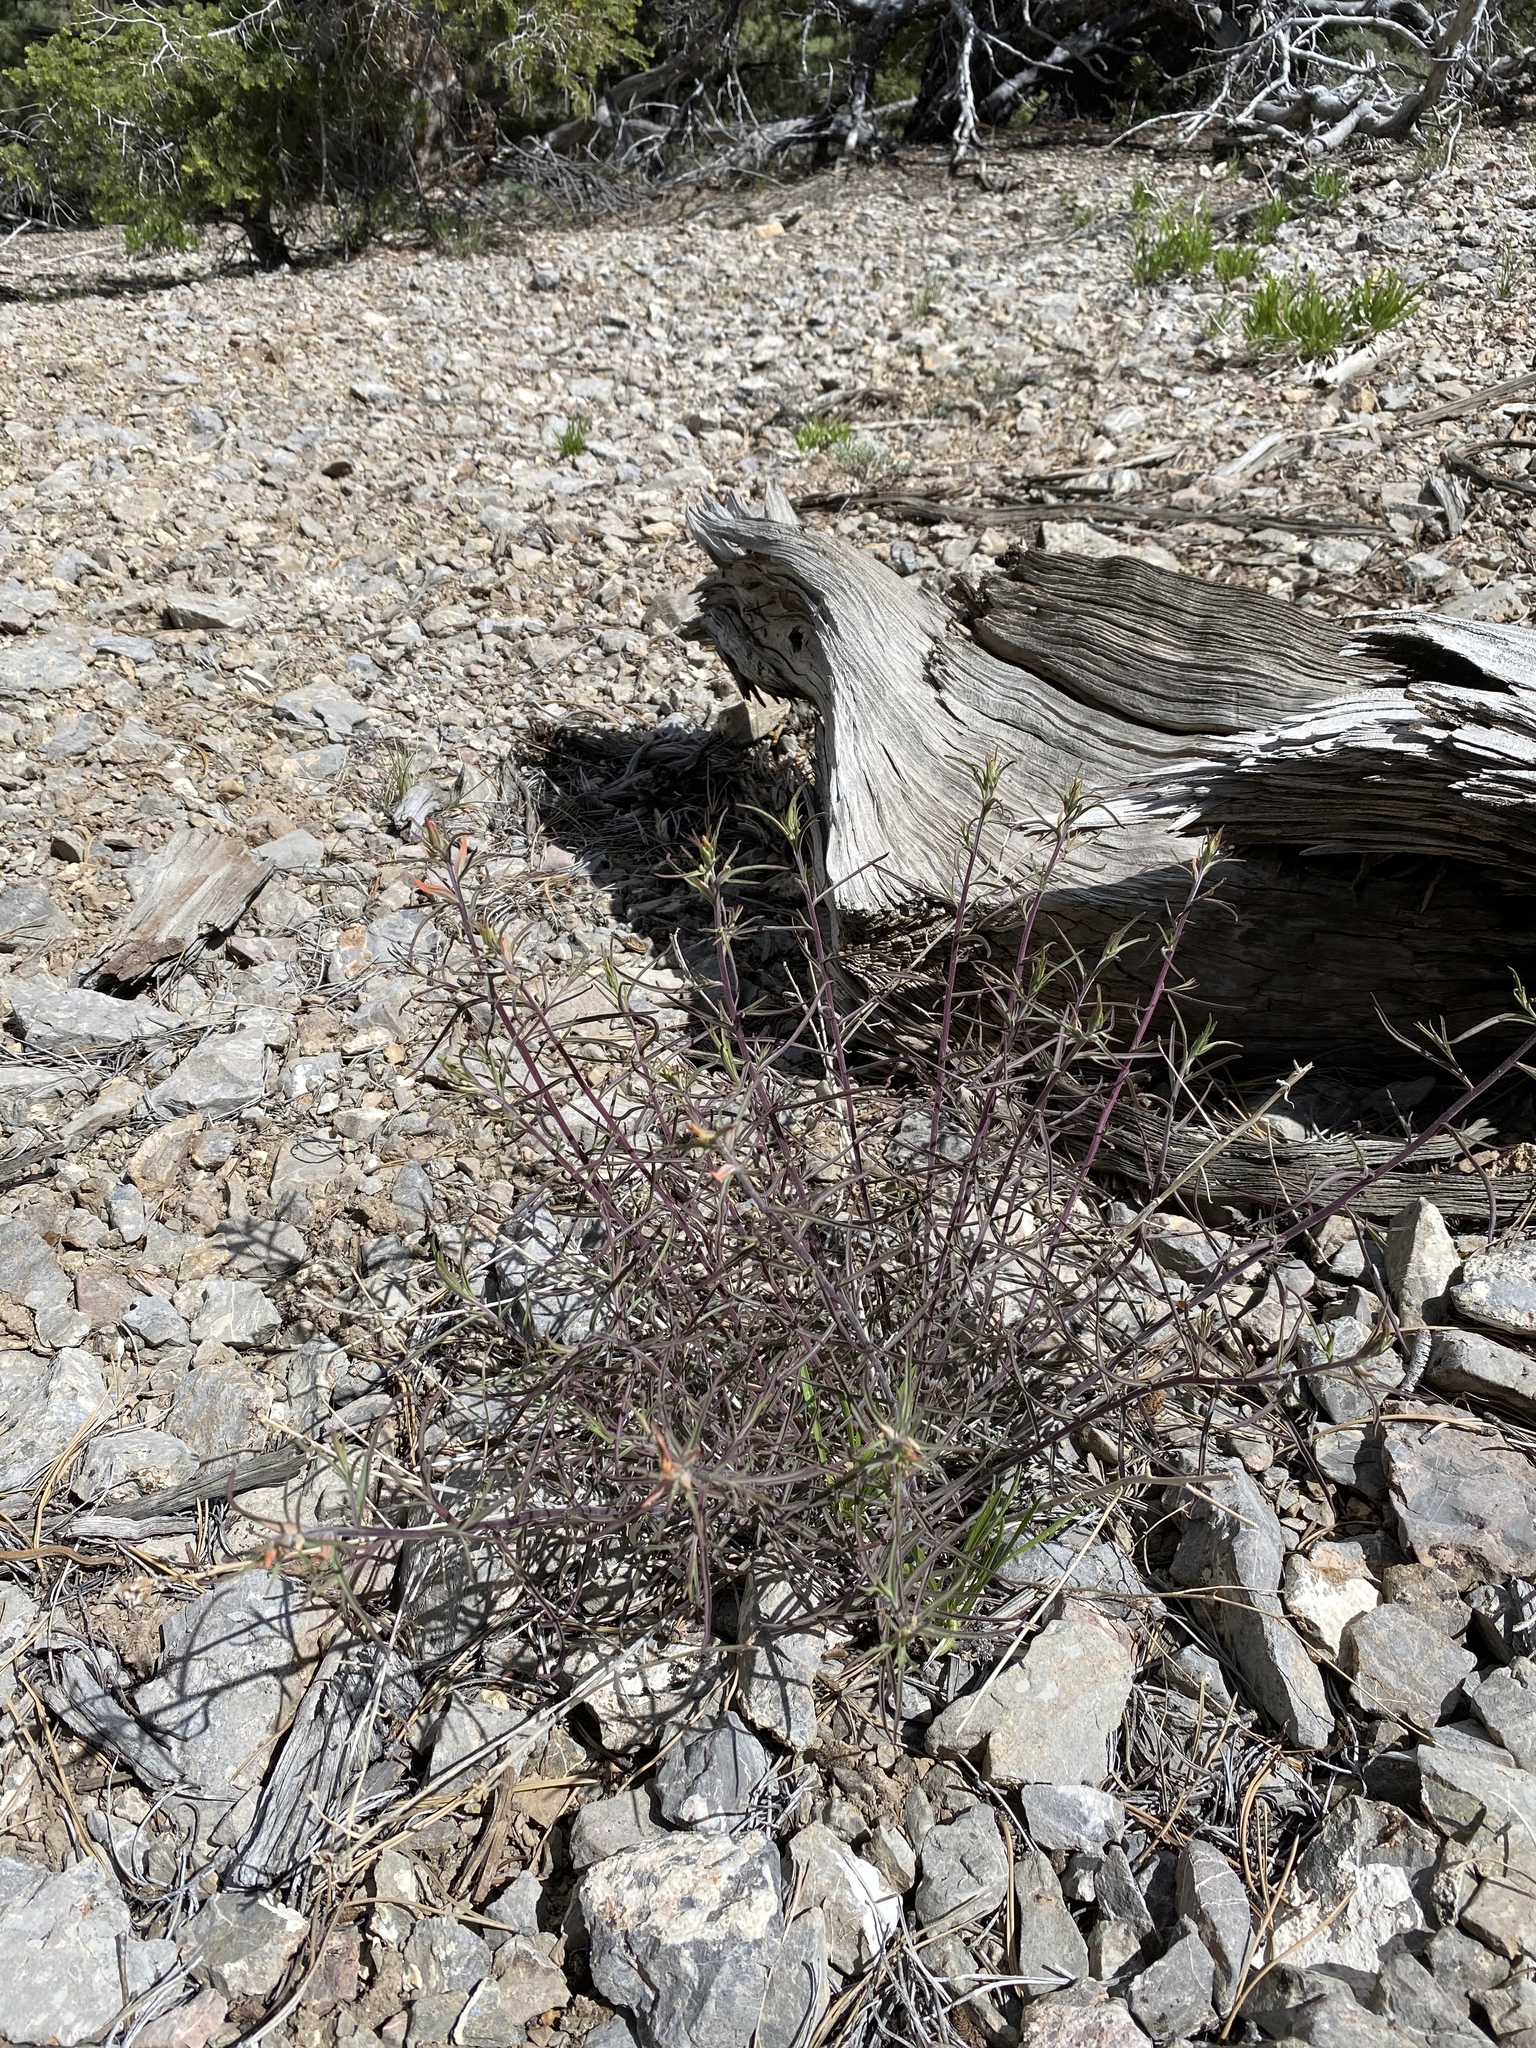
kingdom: Plantae
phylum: Tracheophyta
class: Magnoliopsida
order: Lamiales
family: Orobanchaceae
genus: Castilleja
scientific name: Castilleja linariifolia
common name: Wyoming paintbrush
